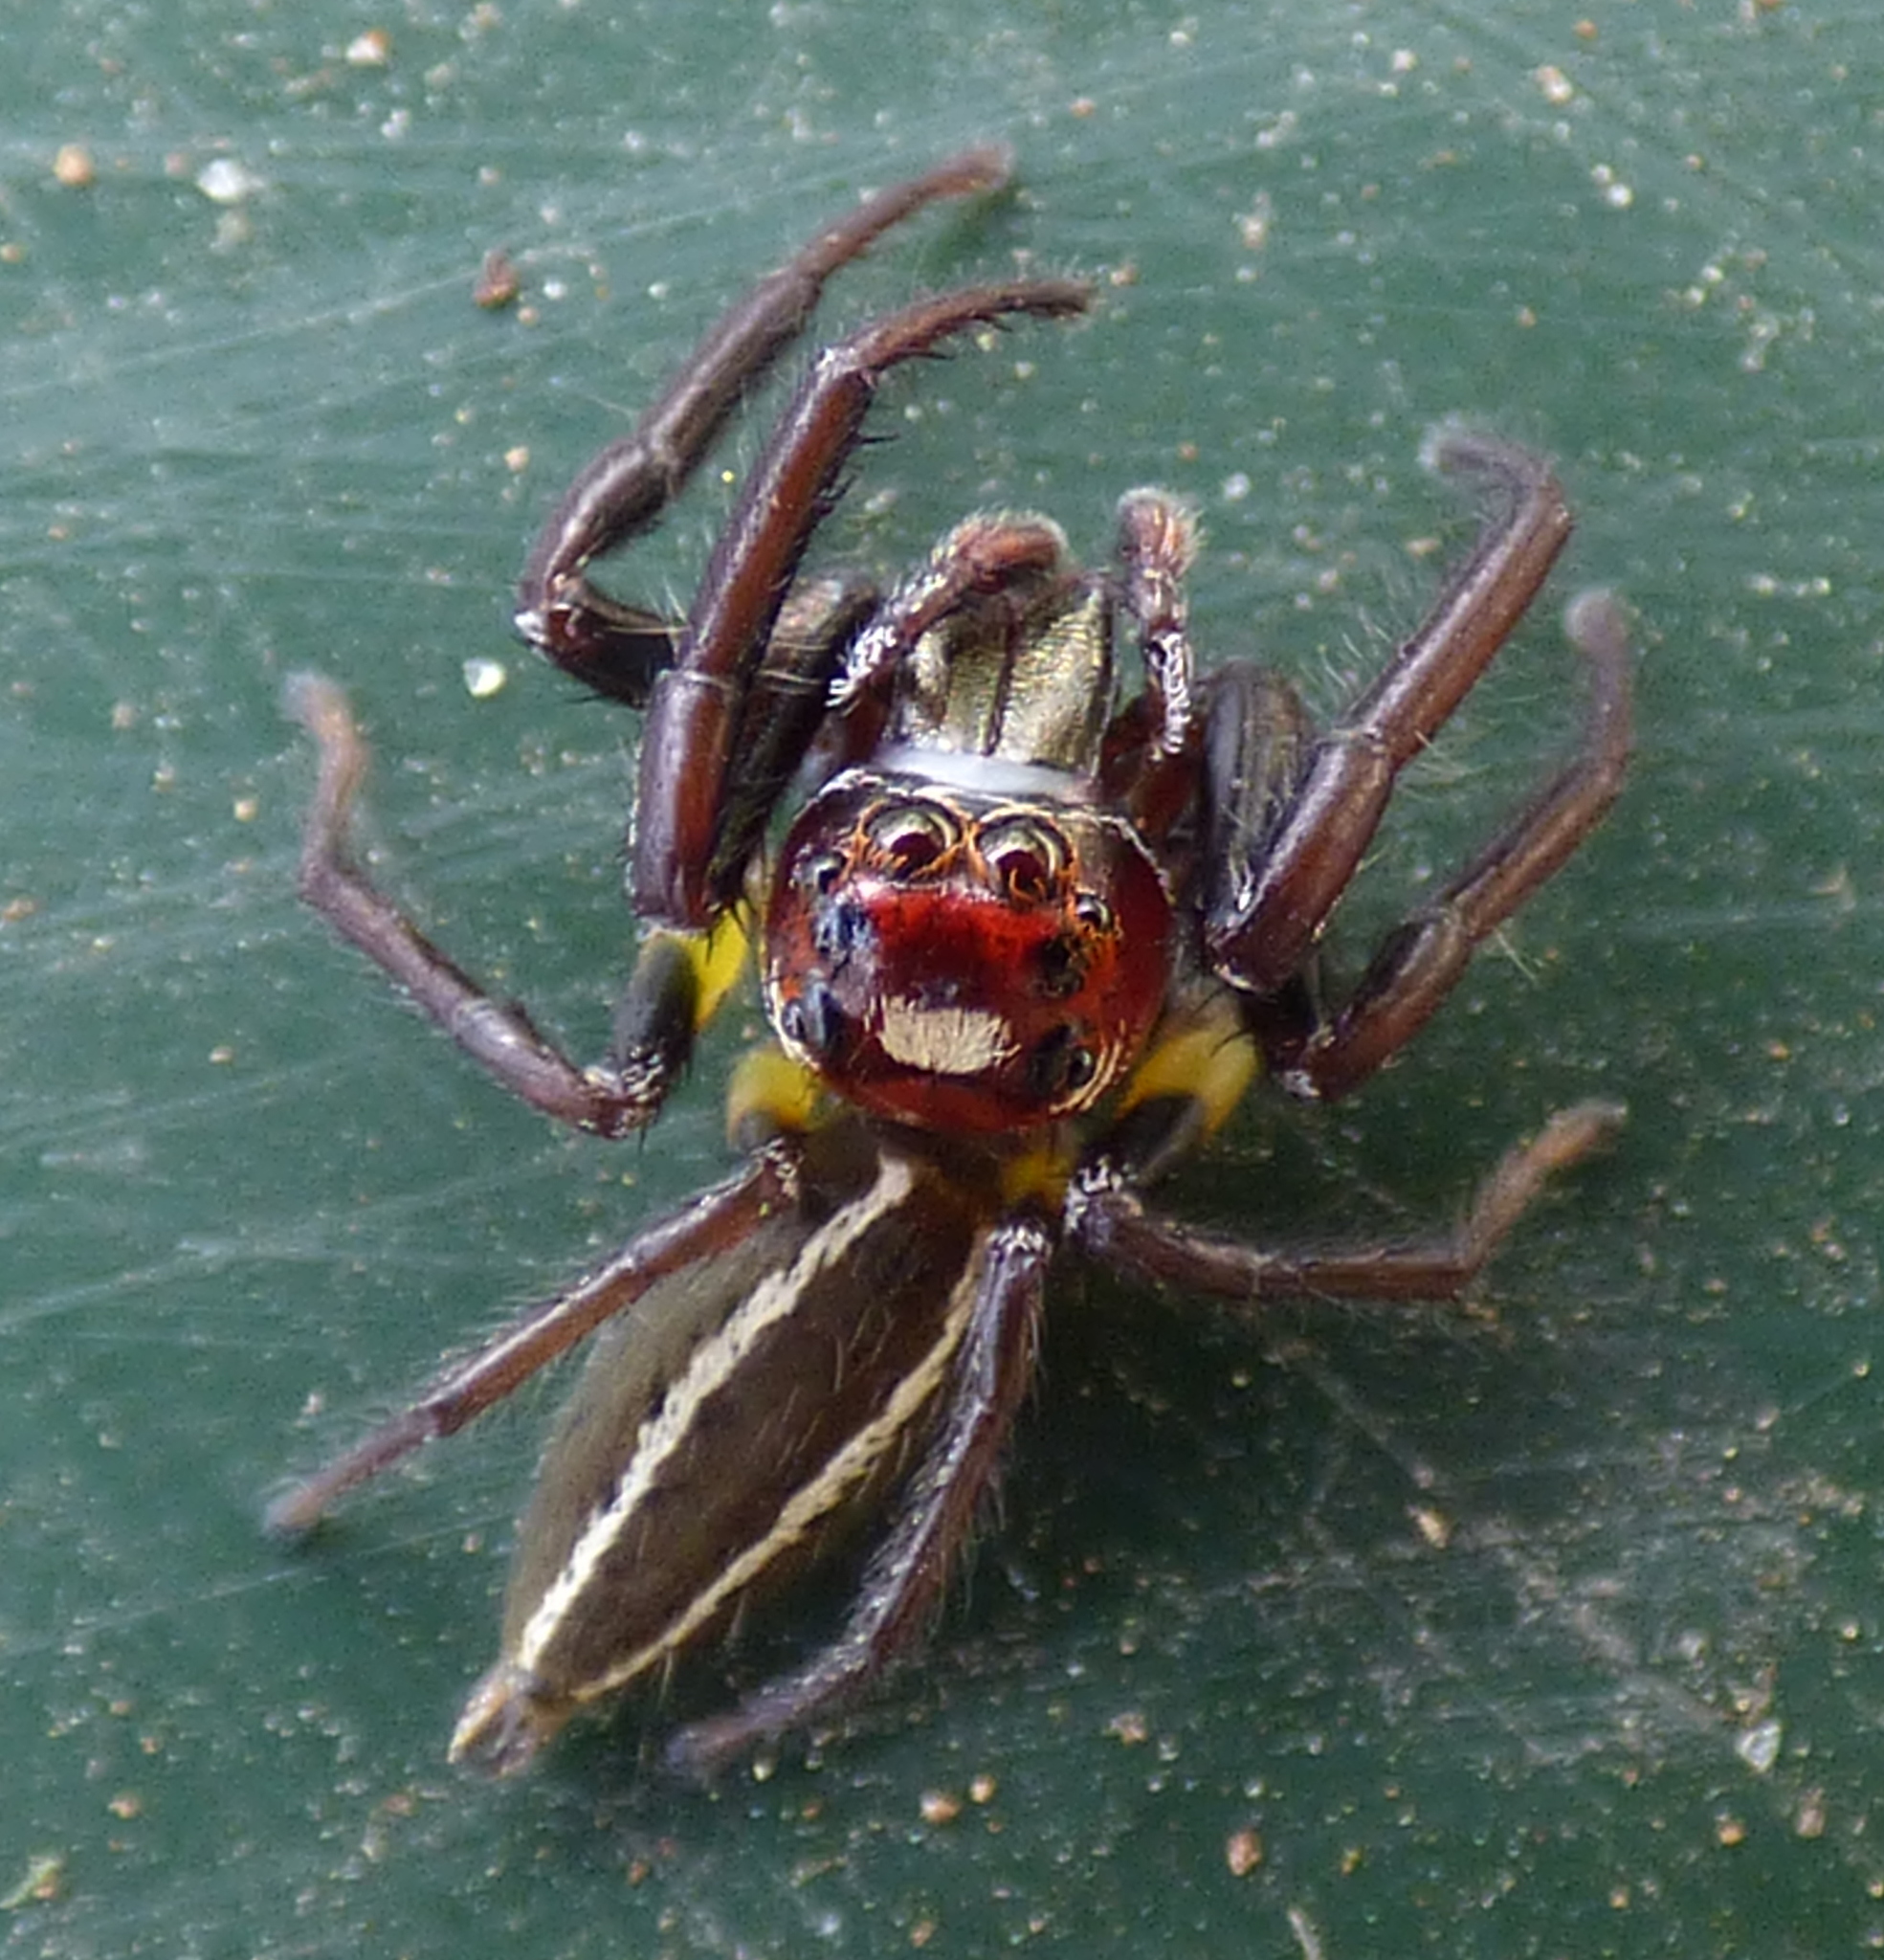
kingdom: Animalia
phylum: Arthropoda
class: Arachnida
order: Araneae
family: Salticidae
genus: Colonus
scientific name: Colonus sylvanus
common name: Jumping spiders
